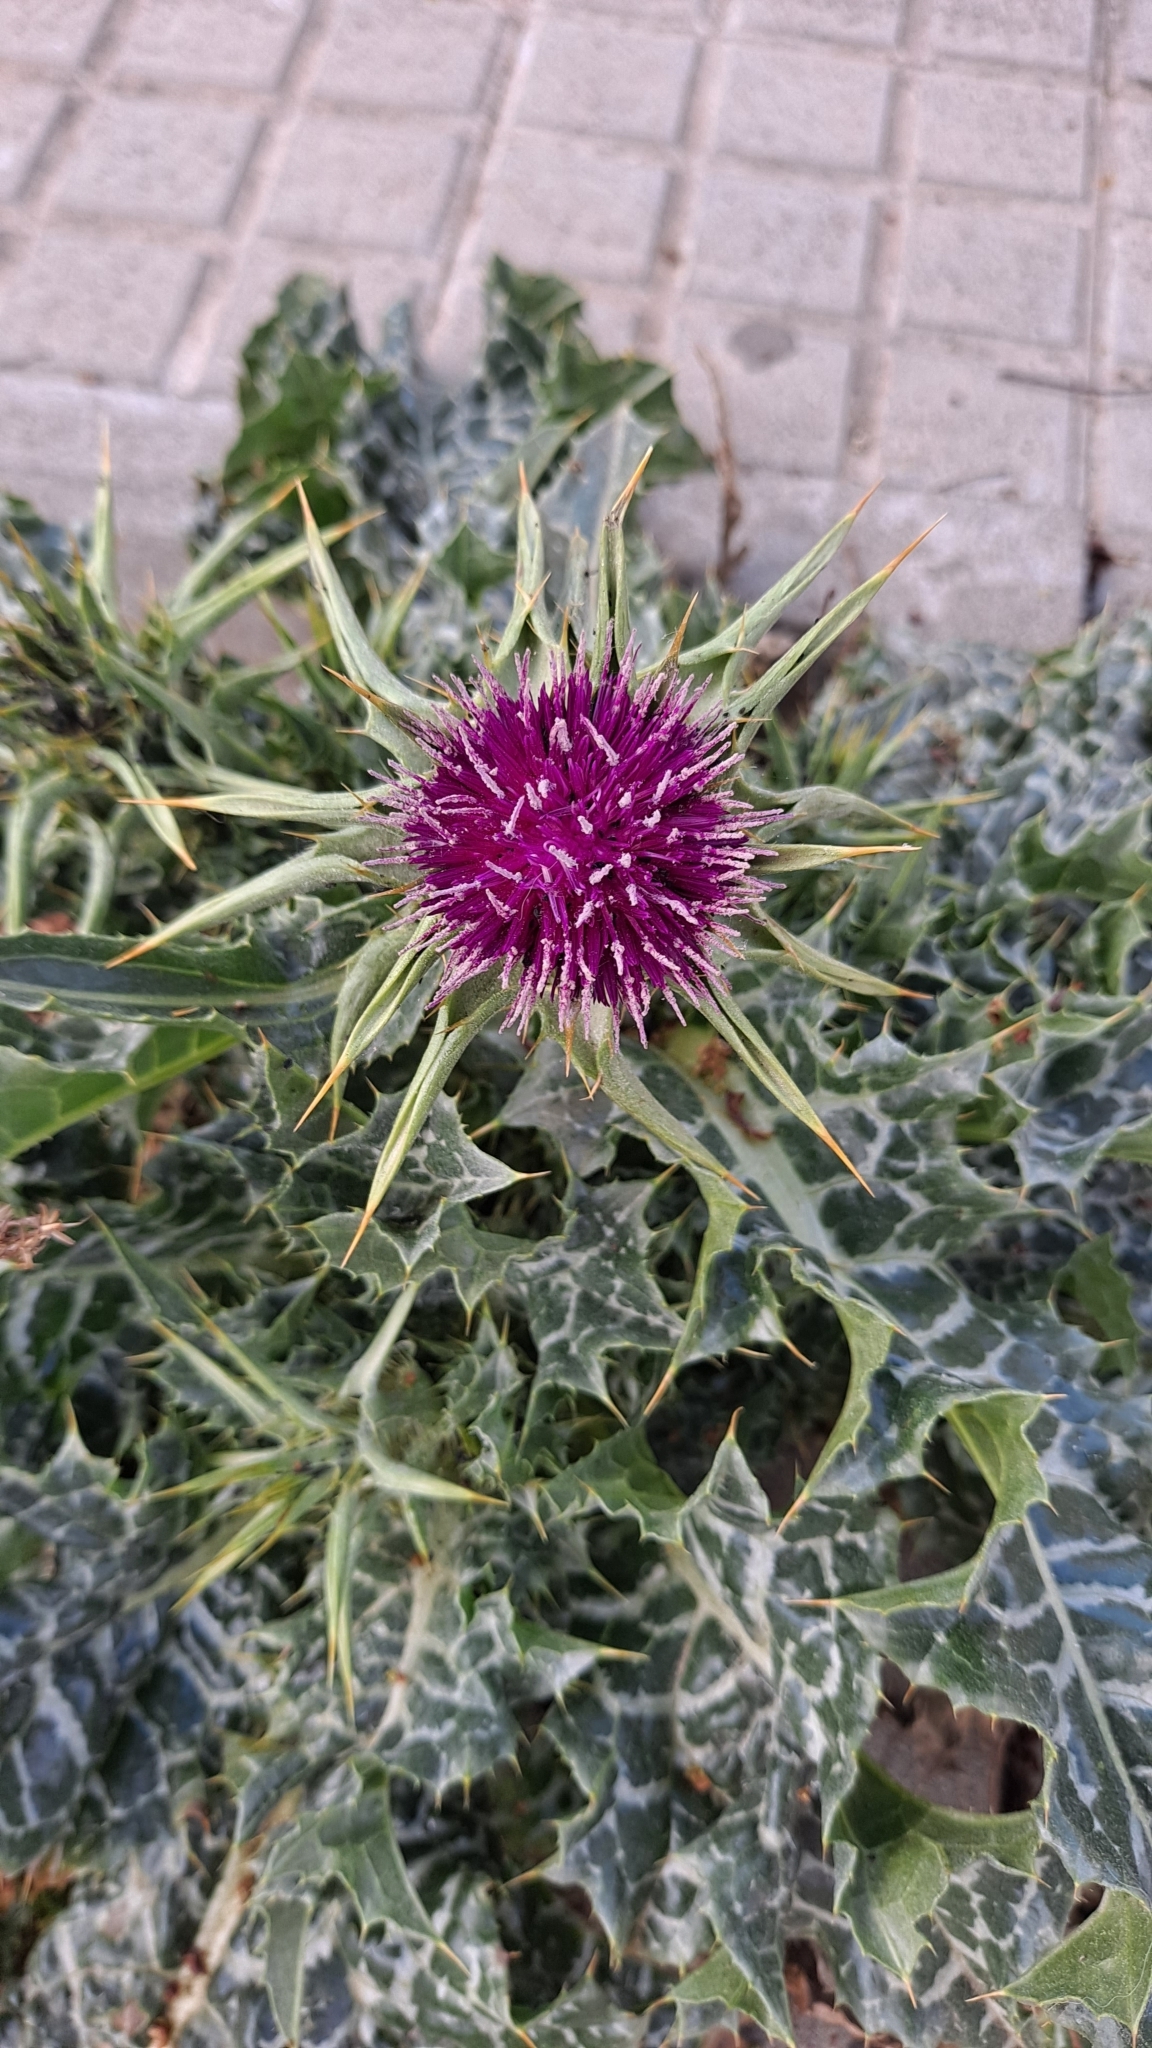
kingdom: Plantae
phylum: Tracheophyta
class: Magnoliopsida
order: Asterales
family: Asteraceae
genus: Silybum
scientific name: Silybum marianum
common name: Milk thistle
